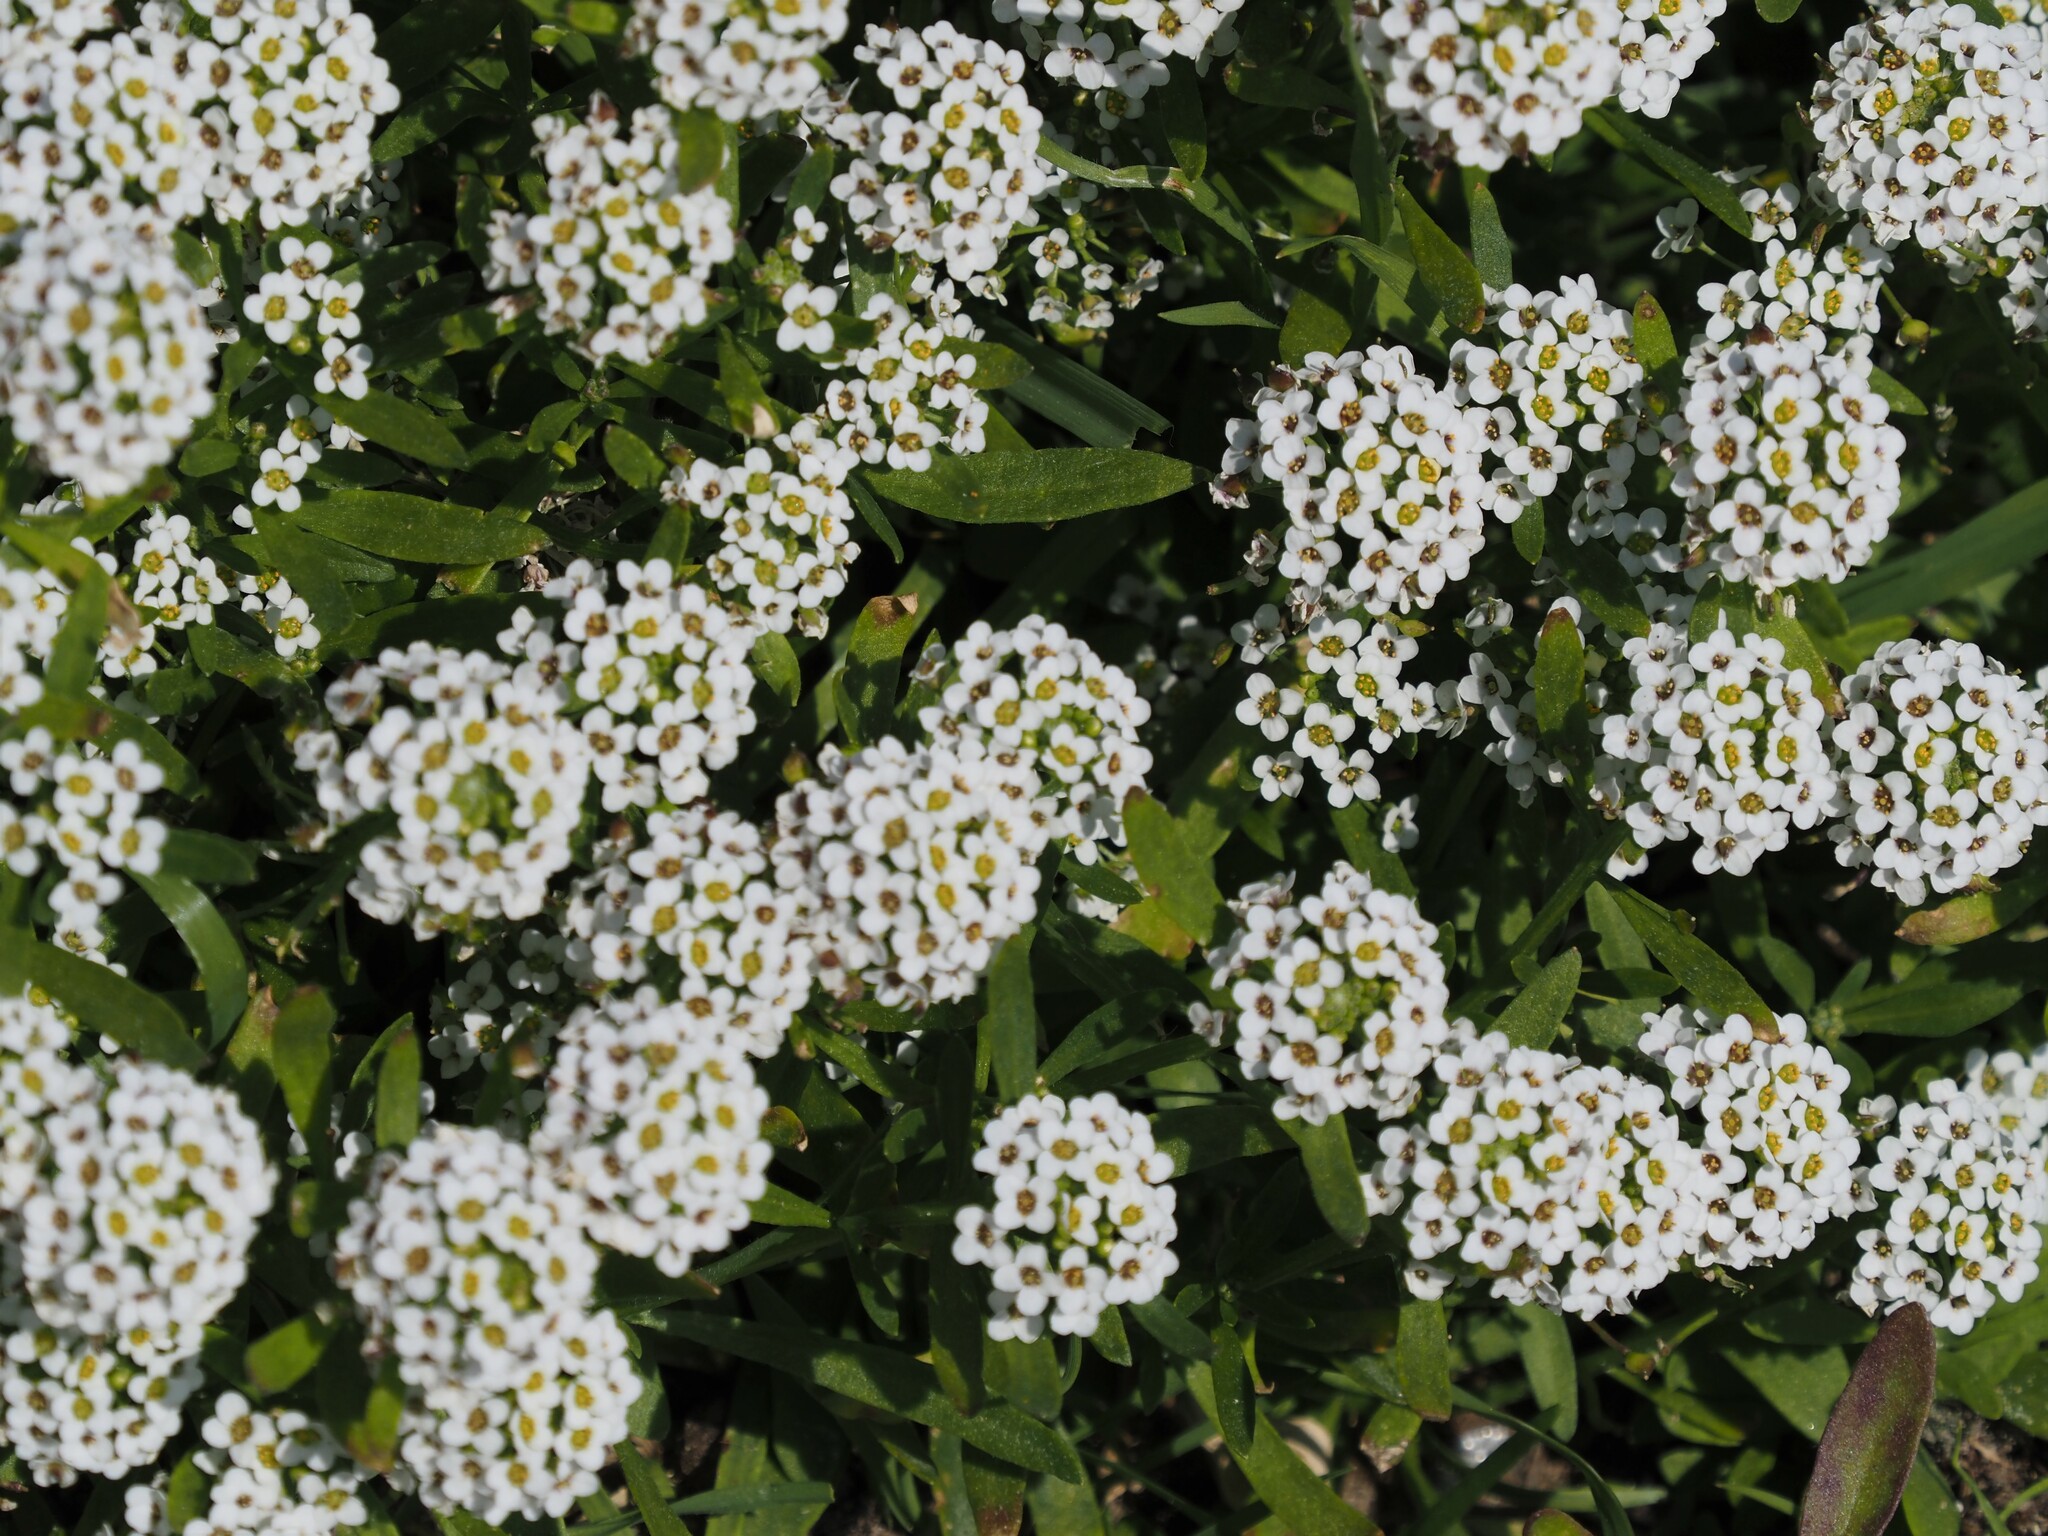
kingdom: Plantae
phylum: Tracheophyta
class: Magnoliopsida
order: Brassicales
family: Brassicaceae
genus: Lobularia
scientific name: Lobularia maritima
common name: Sweet alison
